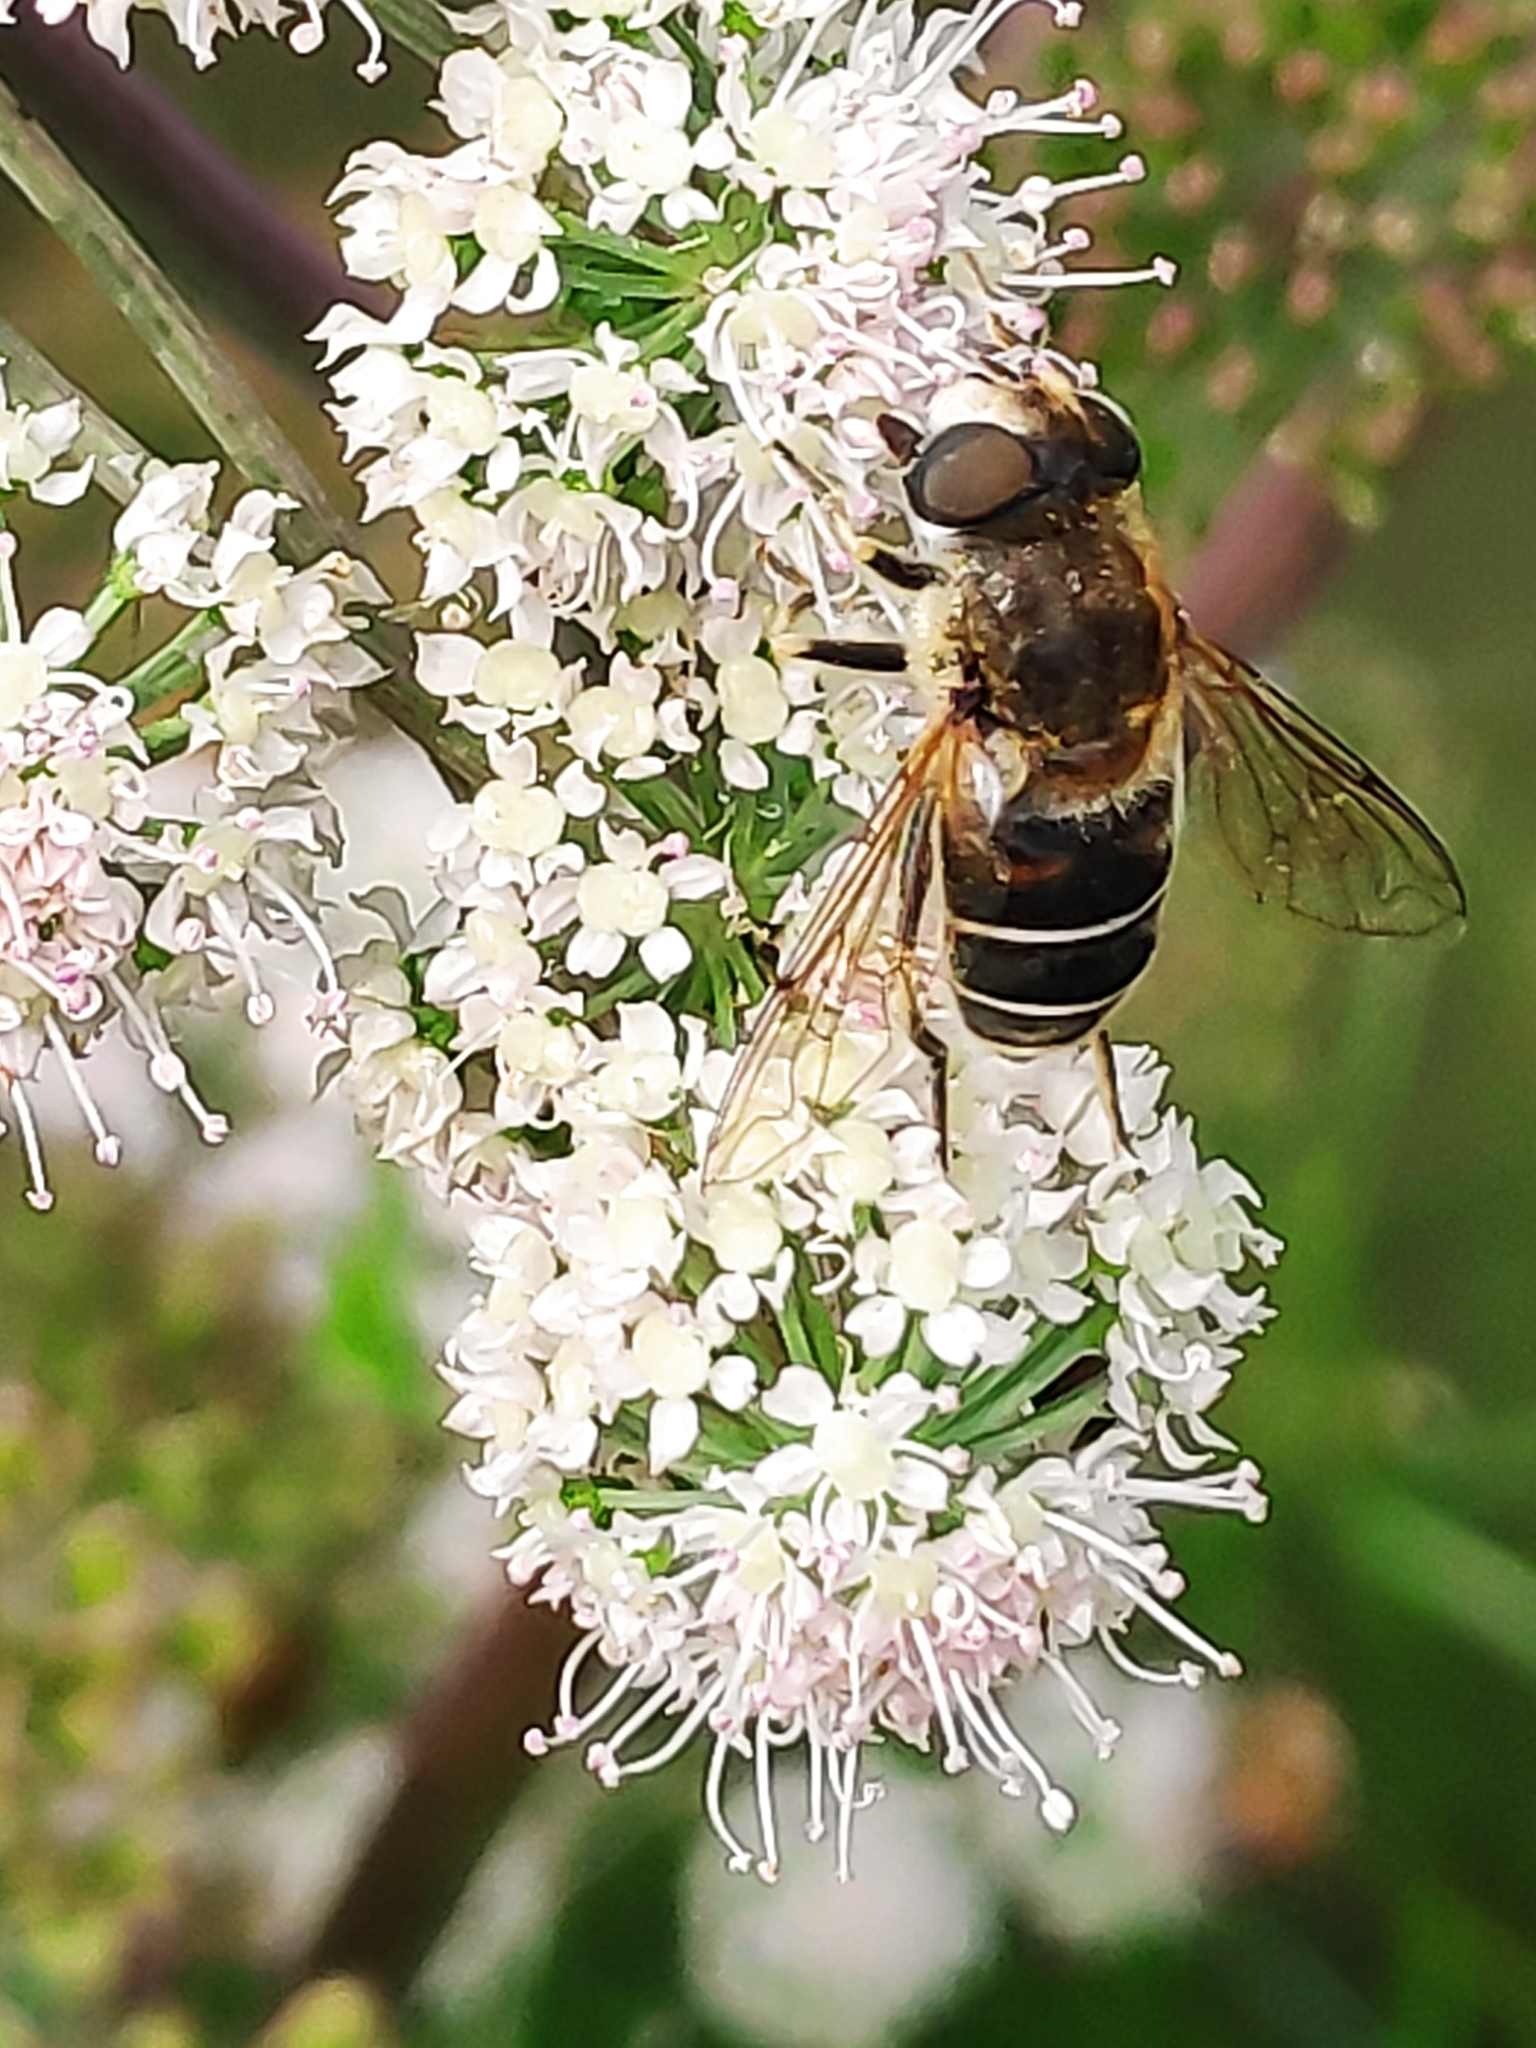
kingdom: Animalia
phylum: Arthropoda
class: Insecta
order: Diptera
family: Syrphidae
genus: Eristalis
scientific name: Eristalis nemorum
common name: Orange-spined drone fly
